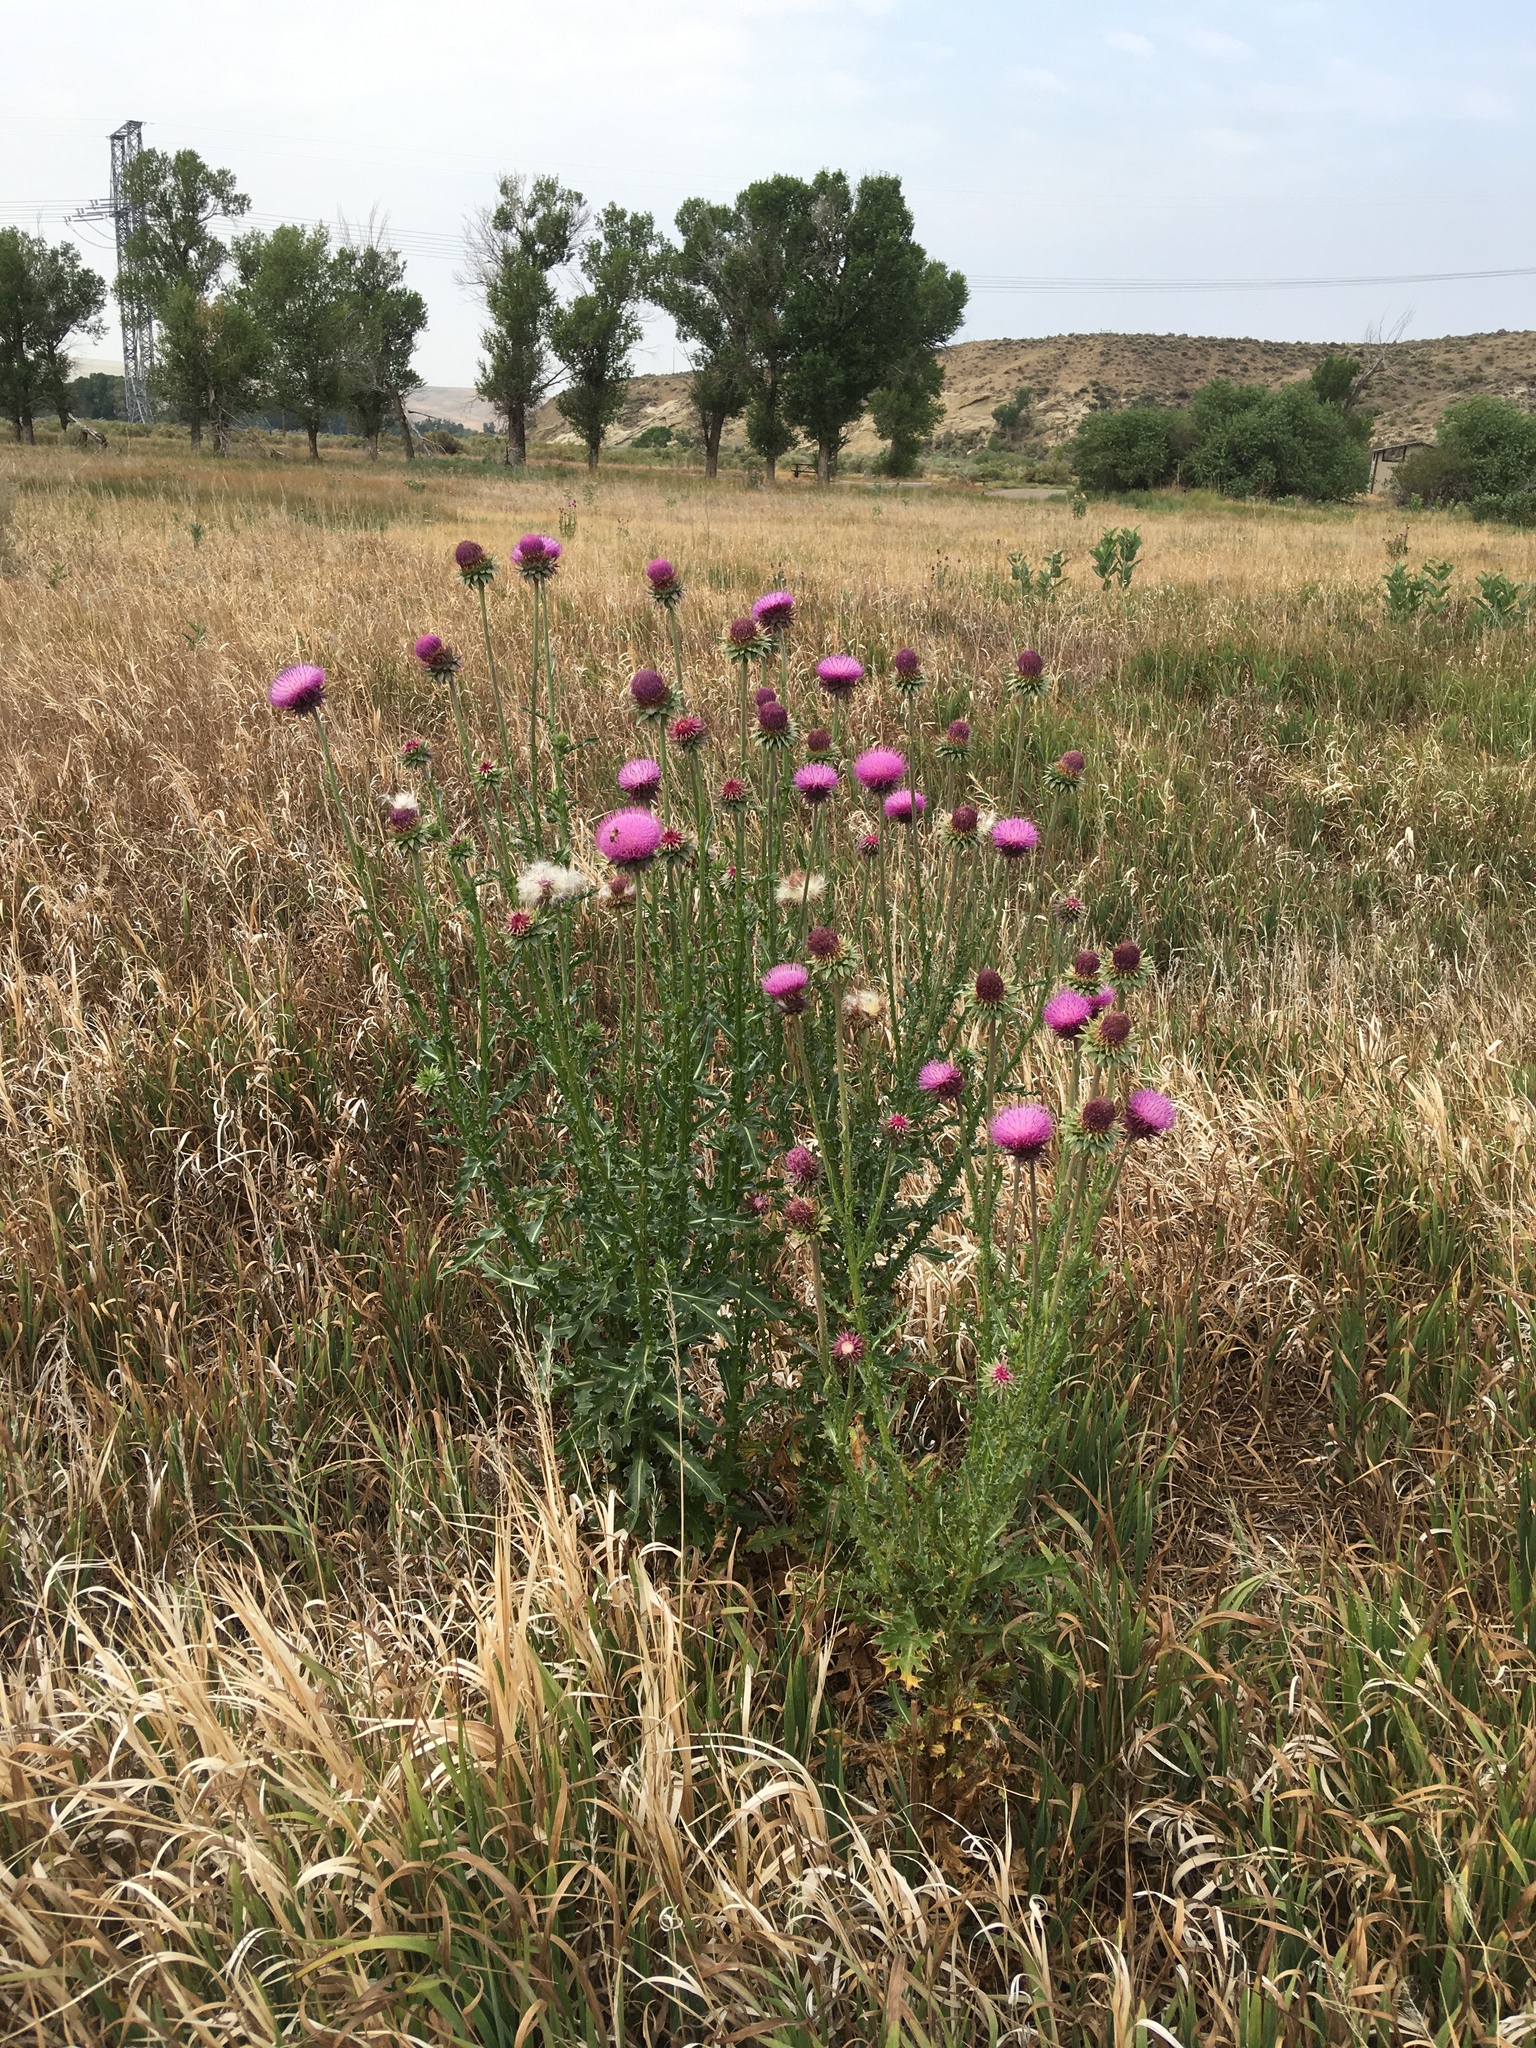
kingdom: Plantae
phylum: Tracheophyta
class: Magnoliopsida
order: Asterales
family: Asteraceae
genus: Carduus
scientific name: Carduus nutans
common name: Musk thistle
